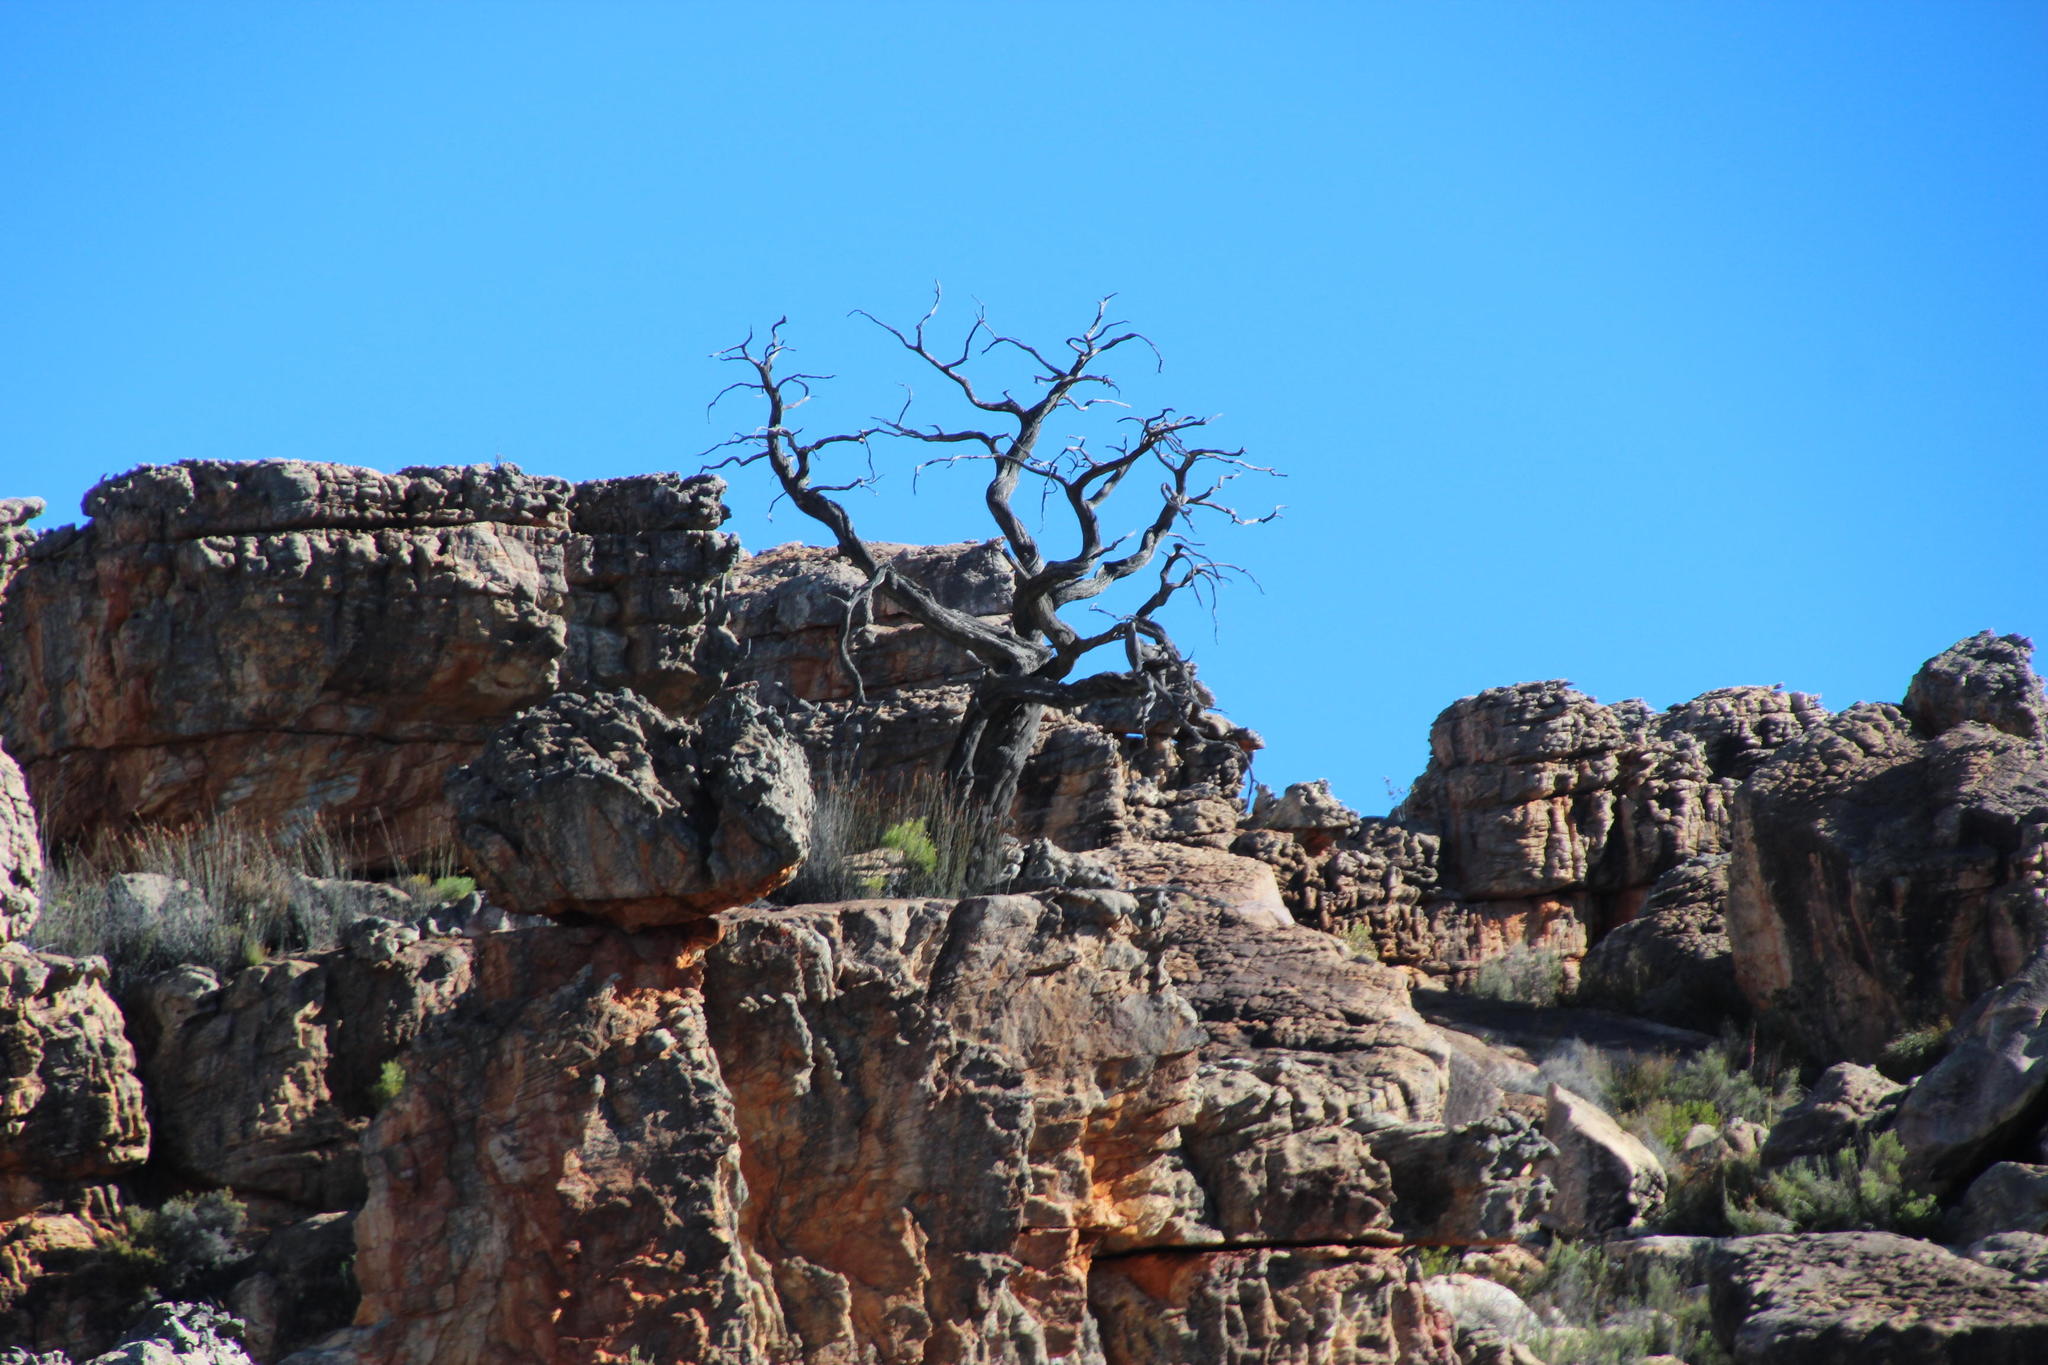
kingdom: Plantae
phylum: Tracheophyta
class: Pinopsida
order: Pinales
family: Cupressaceae
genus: Widdringtonia
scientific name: Widdringtonia nodiflora
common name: Cape cypress
